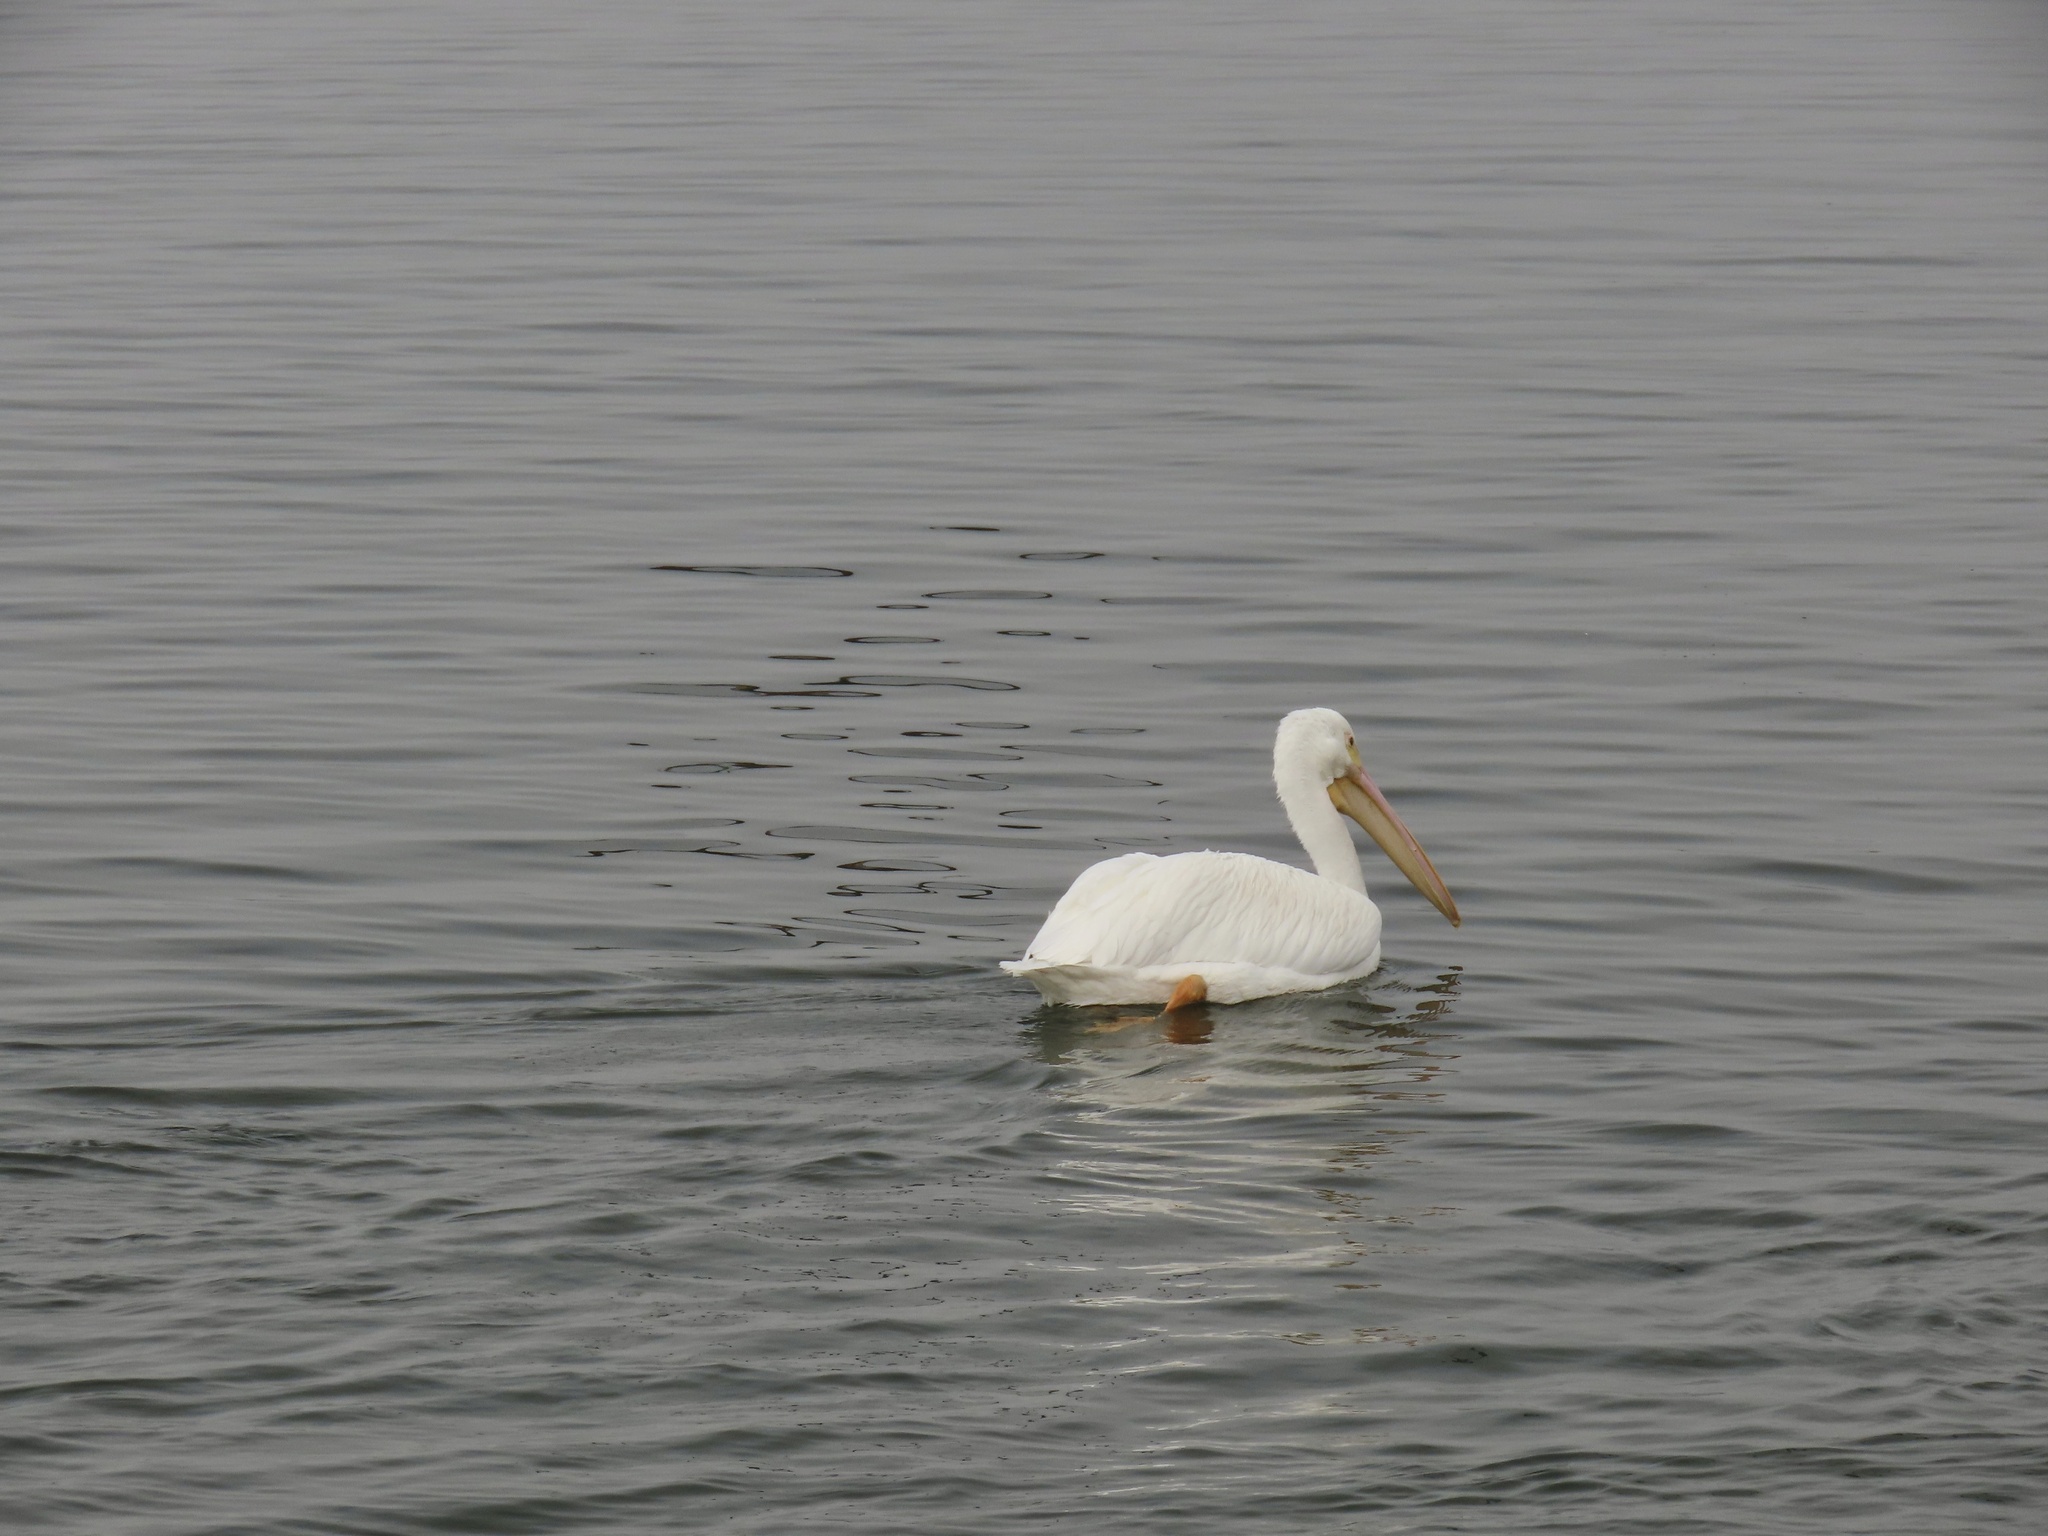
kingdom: Animalia
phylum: Chordata
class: Aves
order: Pelecaniformes
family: Pelecanidae
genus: Pelecanus
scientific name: Pelecanus erythrorhynchos
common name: American white pelican
